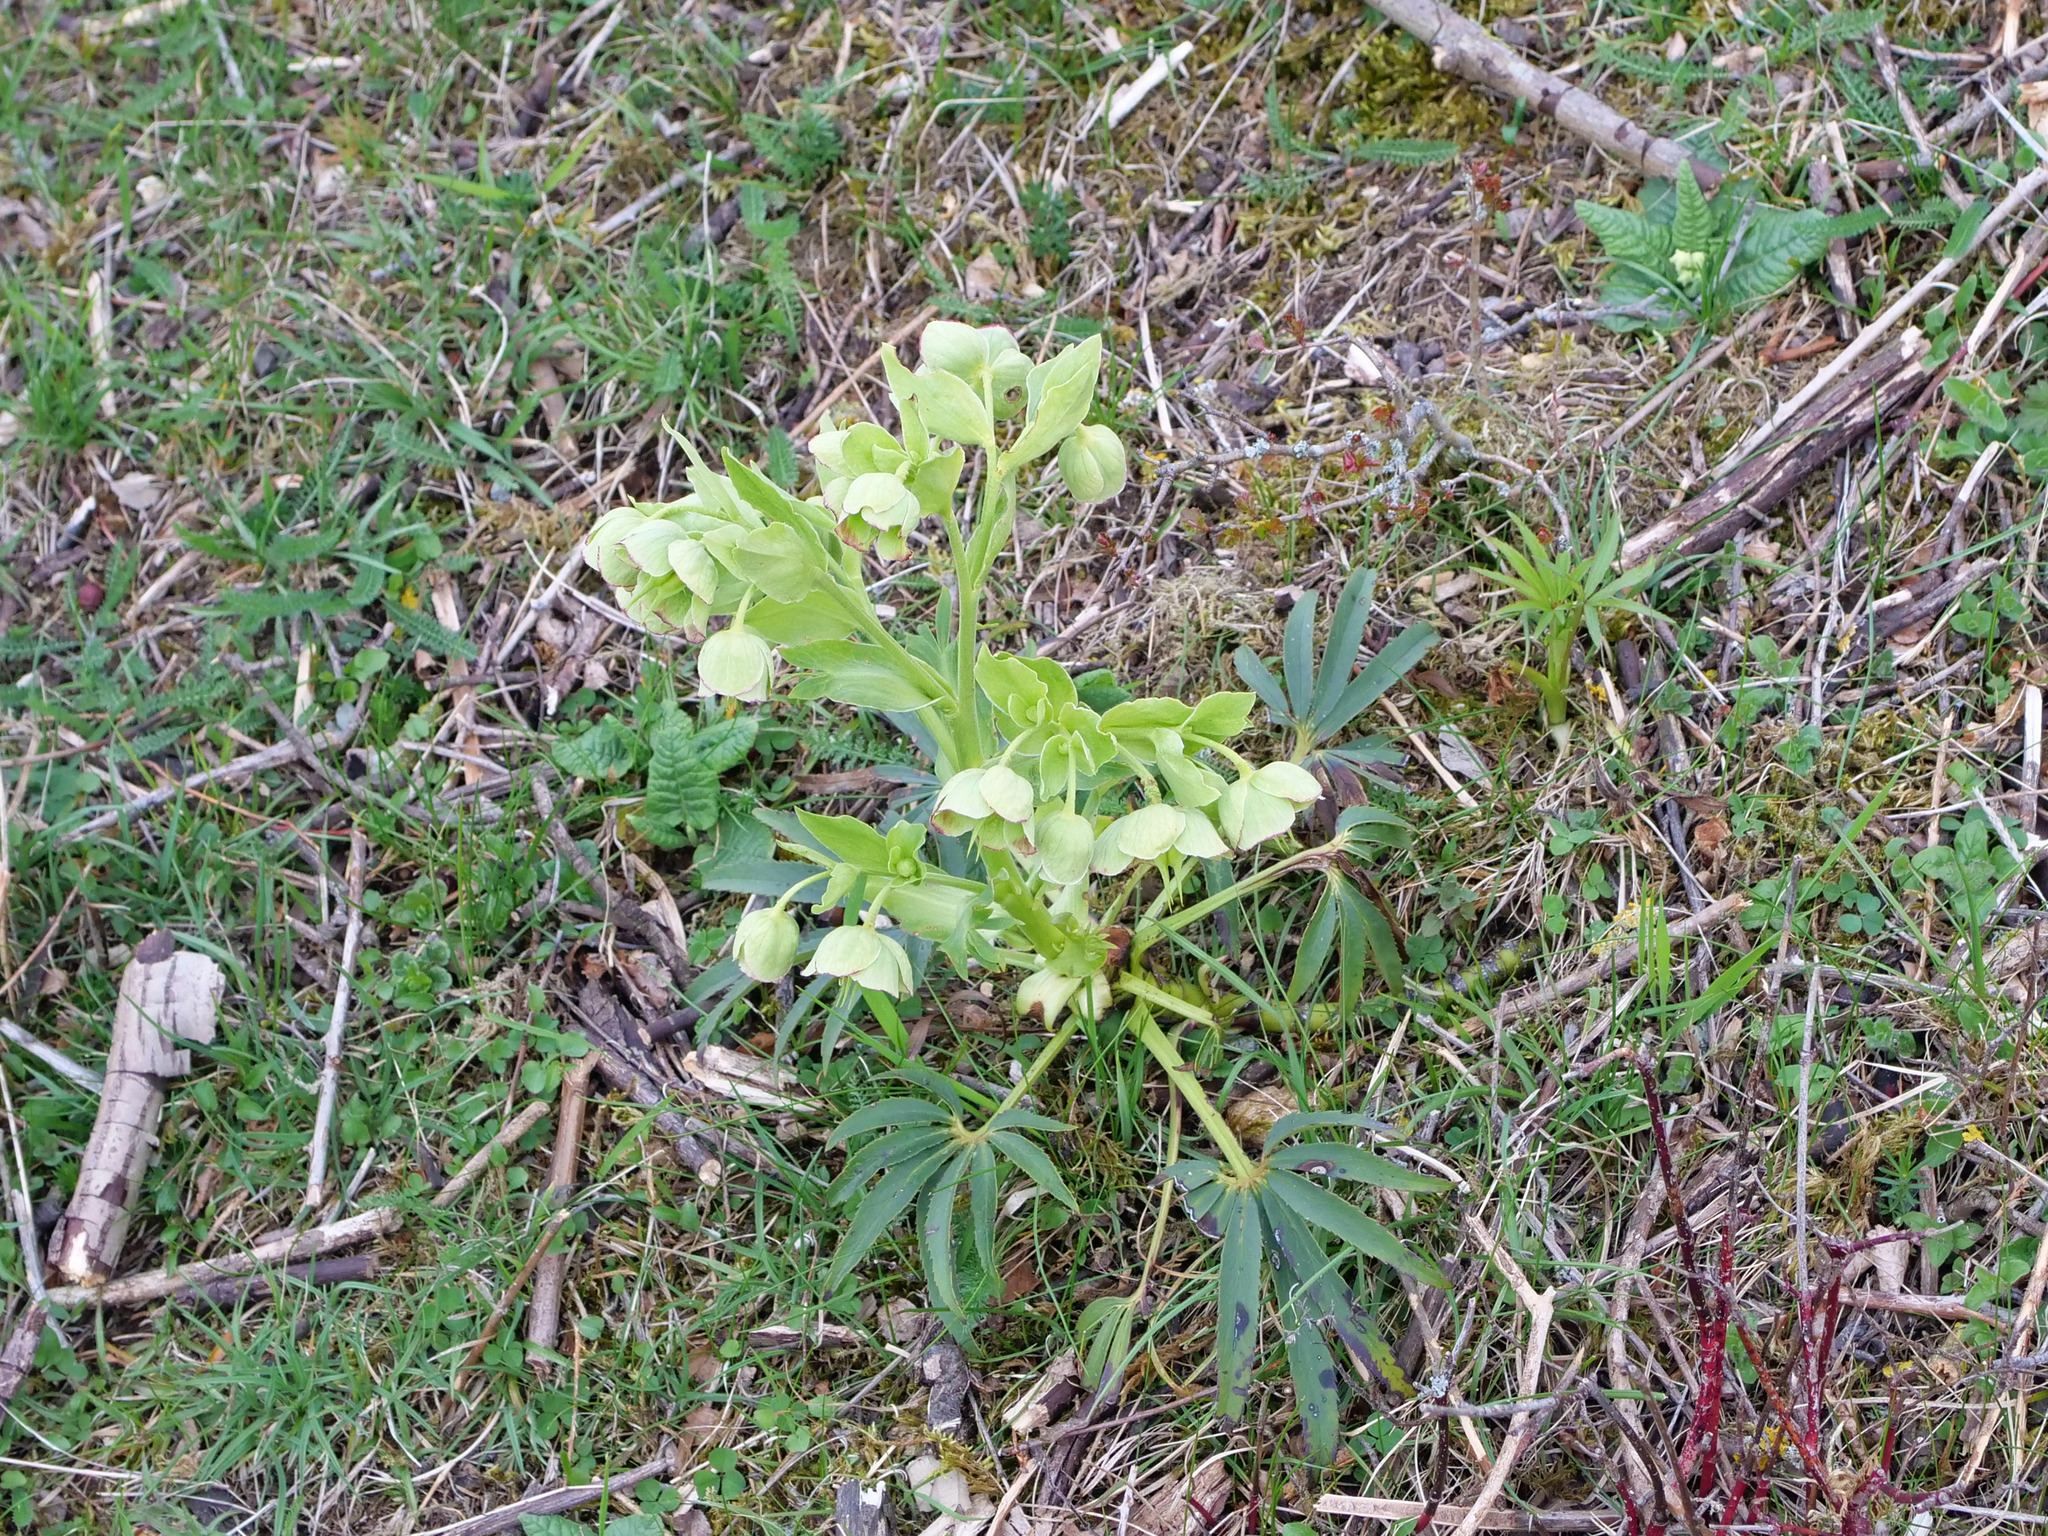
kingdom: Plantae
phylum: Tracheophyta
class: Magnoliopsida
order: Ranunculales
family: Ranunculaceae
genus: Helleborus
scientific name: Helleborus foetidus
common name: Stinking hellebore
